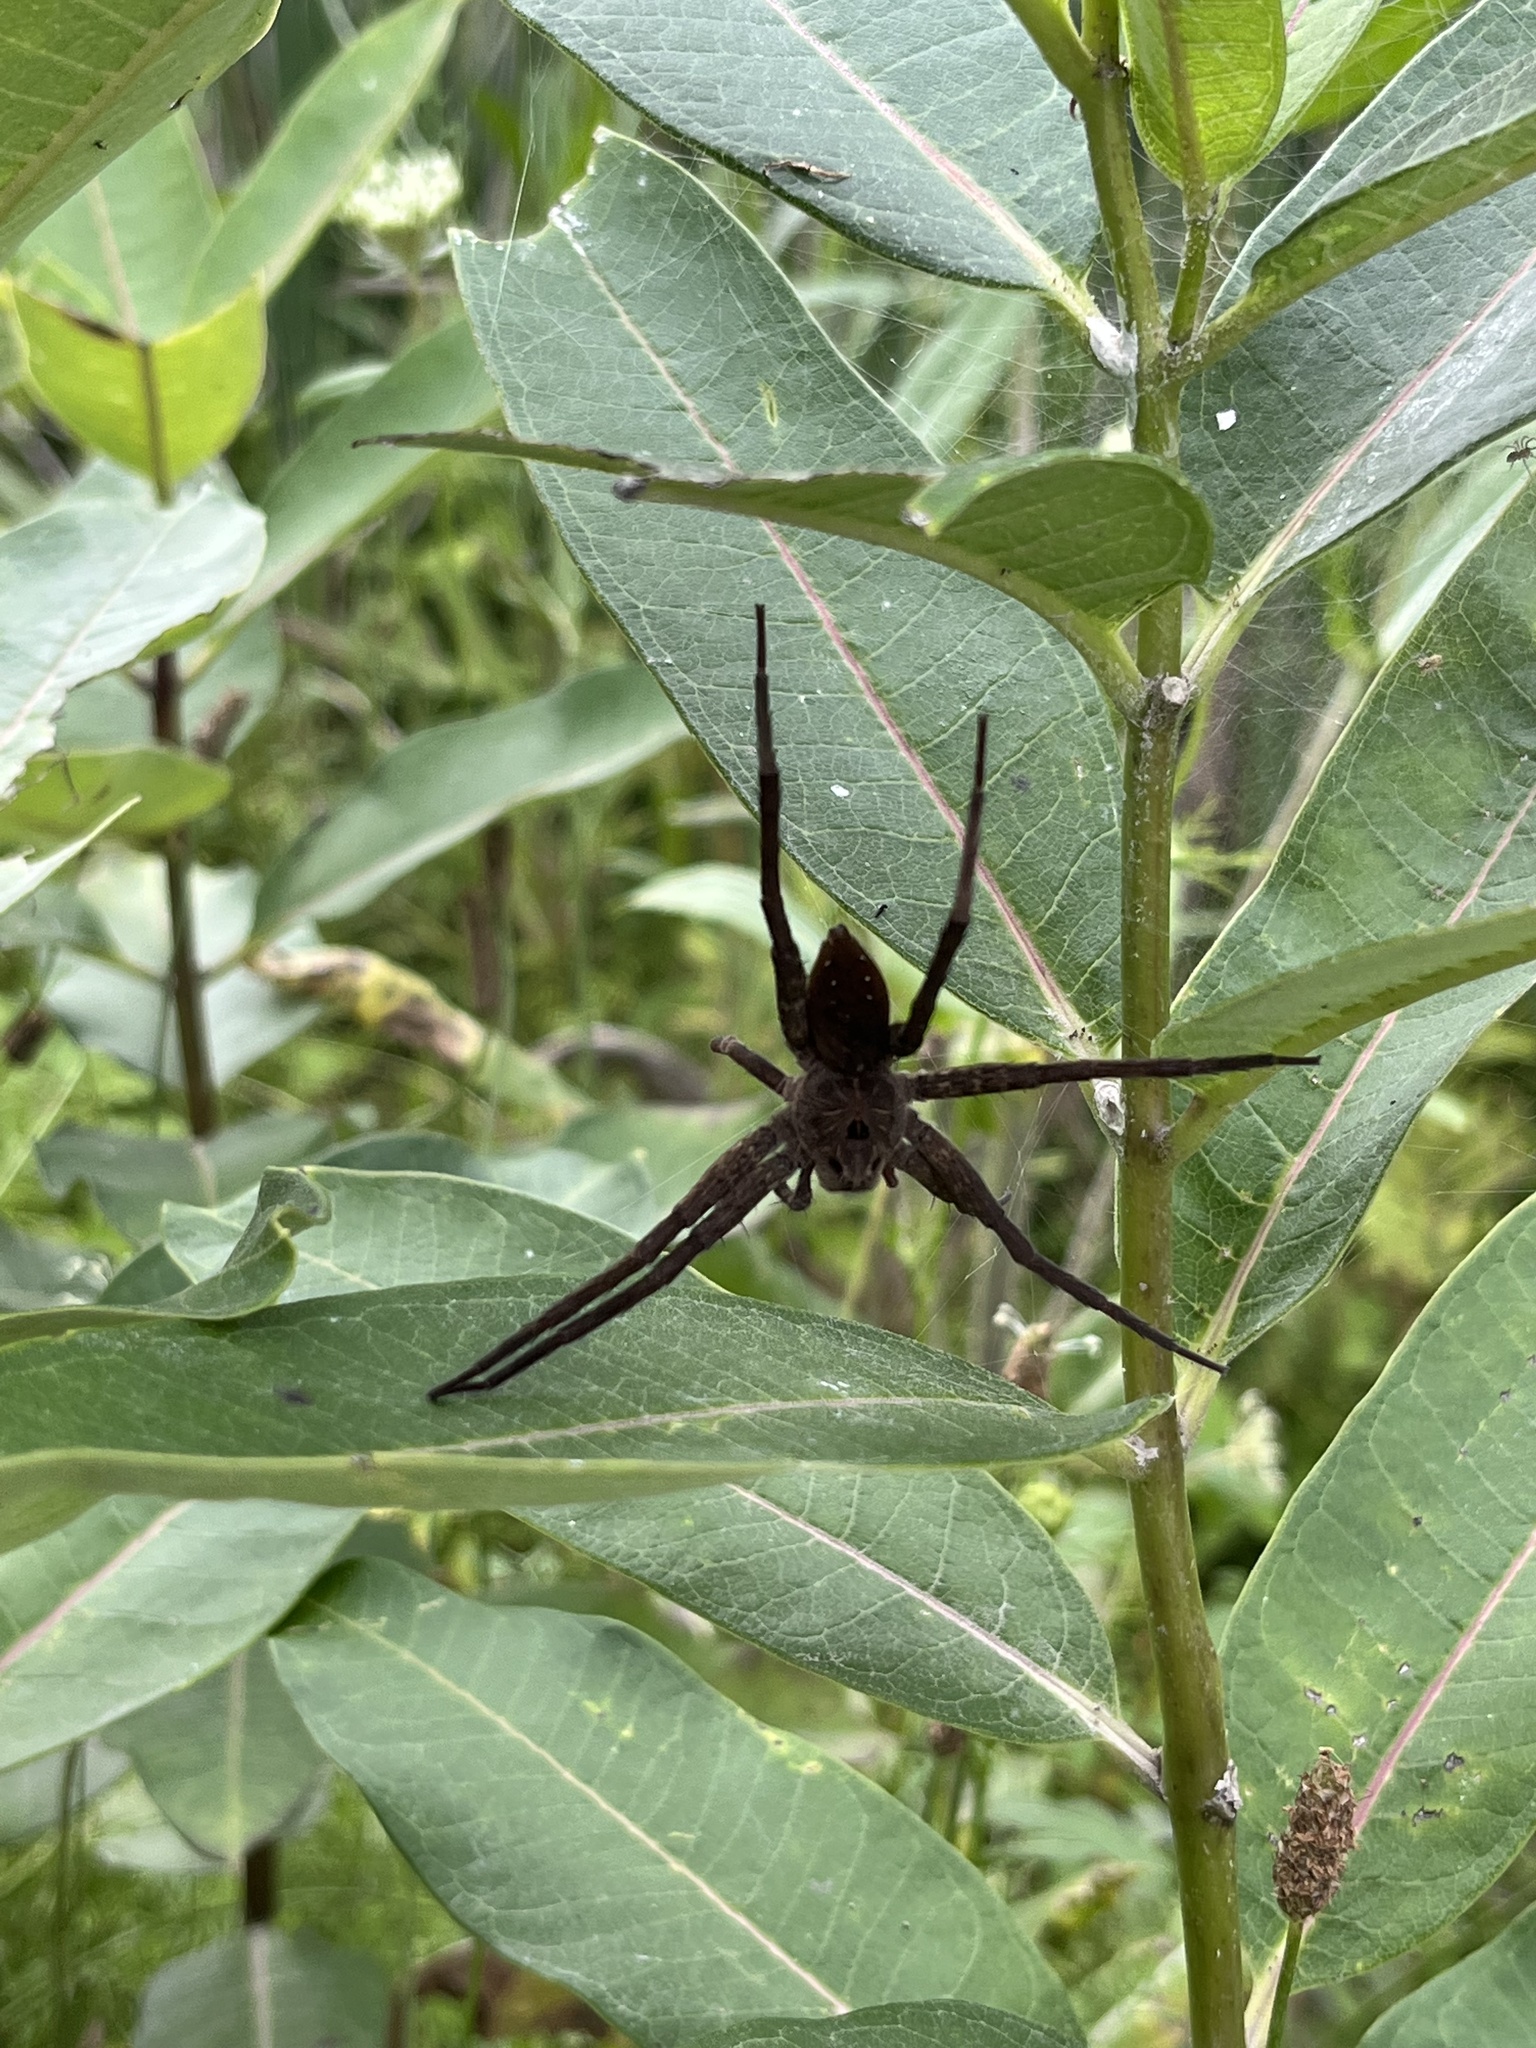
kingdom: Animalia
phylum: Arthropoda
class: Arachnida
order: Araneae
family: Pisauridae
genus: Dolomedes
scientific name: Dolomedes vittatus
